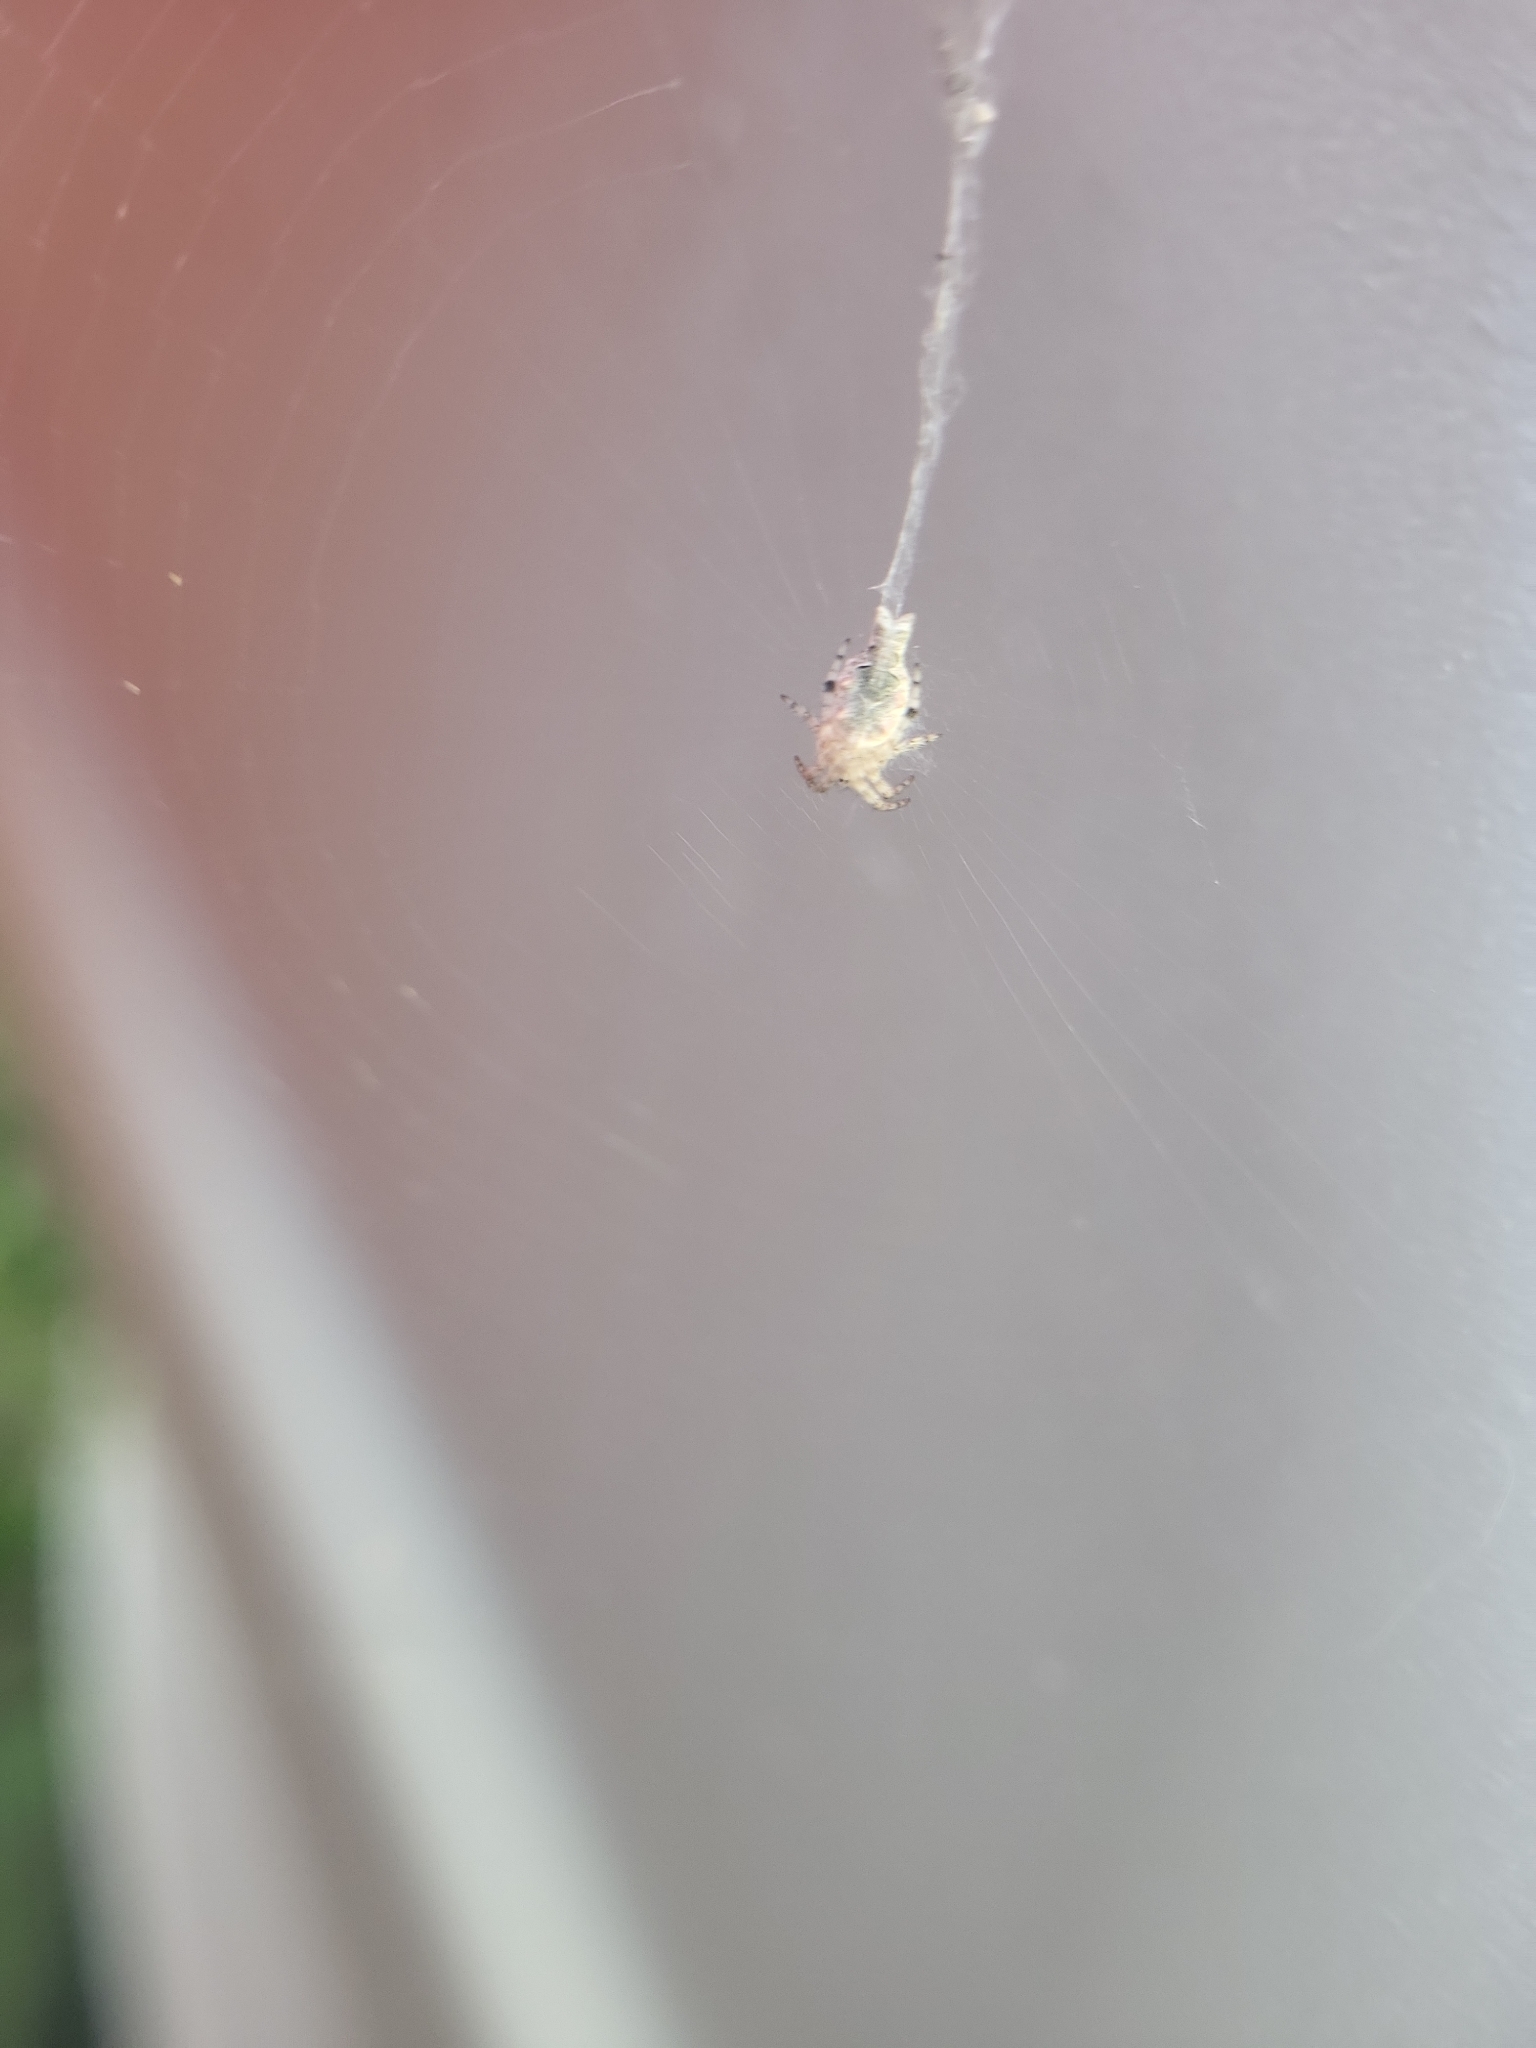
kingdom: Animalia
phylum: Arthropoda
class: Arachnida
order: Araneae
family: Araneidae
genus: Allocyclosa
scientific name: Allocyclosa bifurca
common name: Orb weavers
